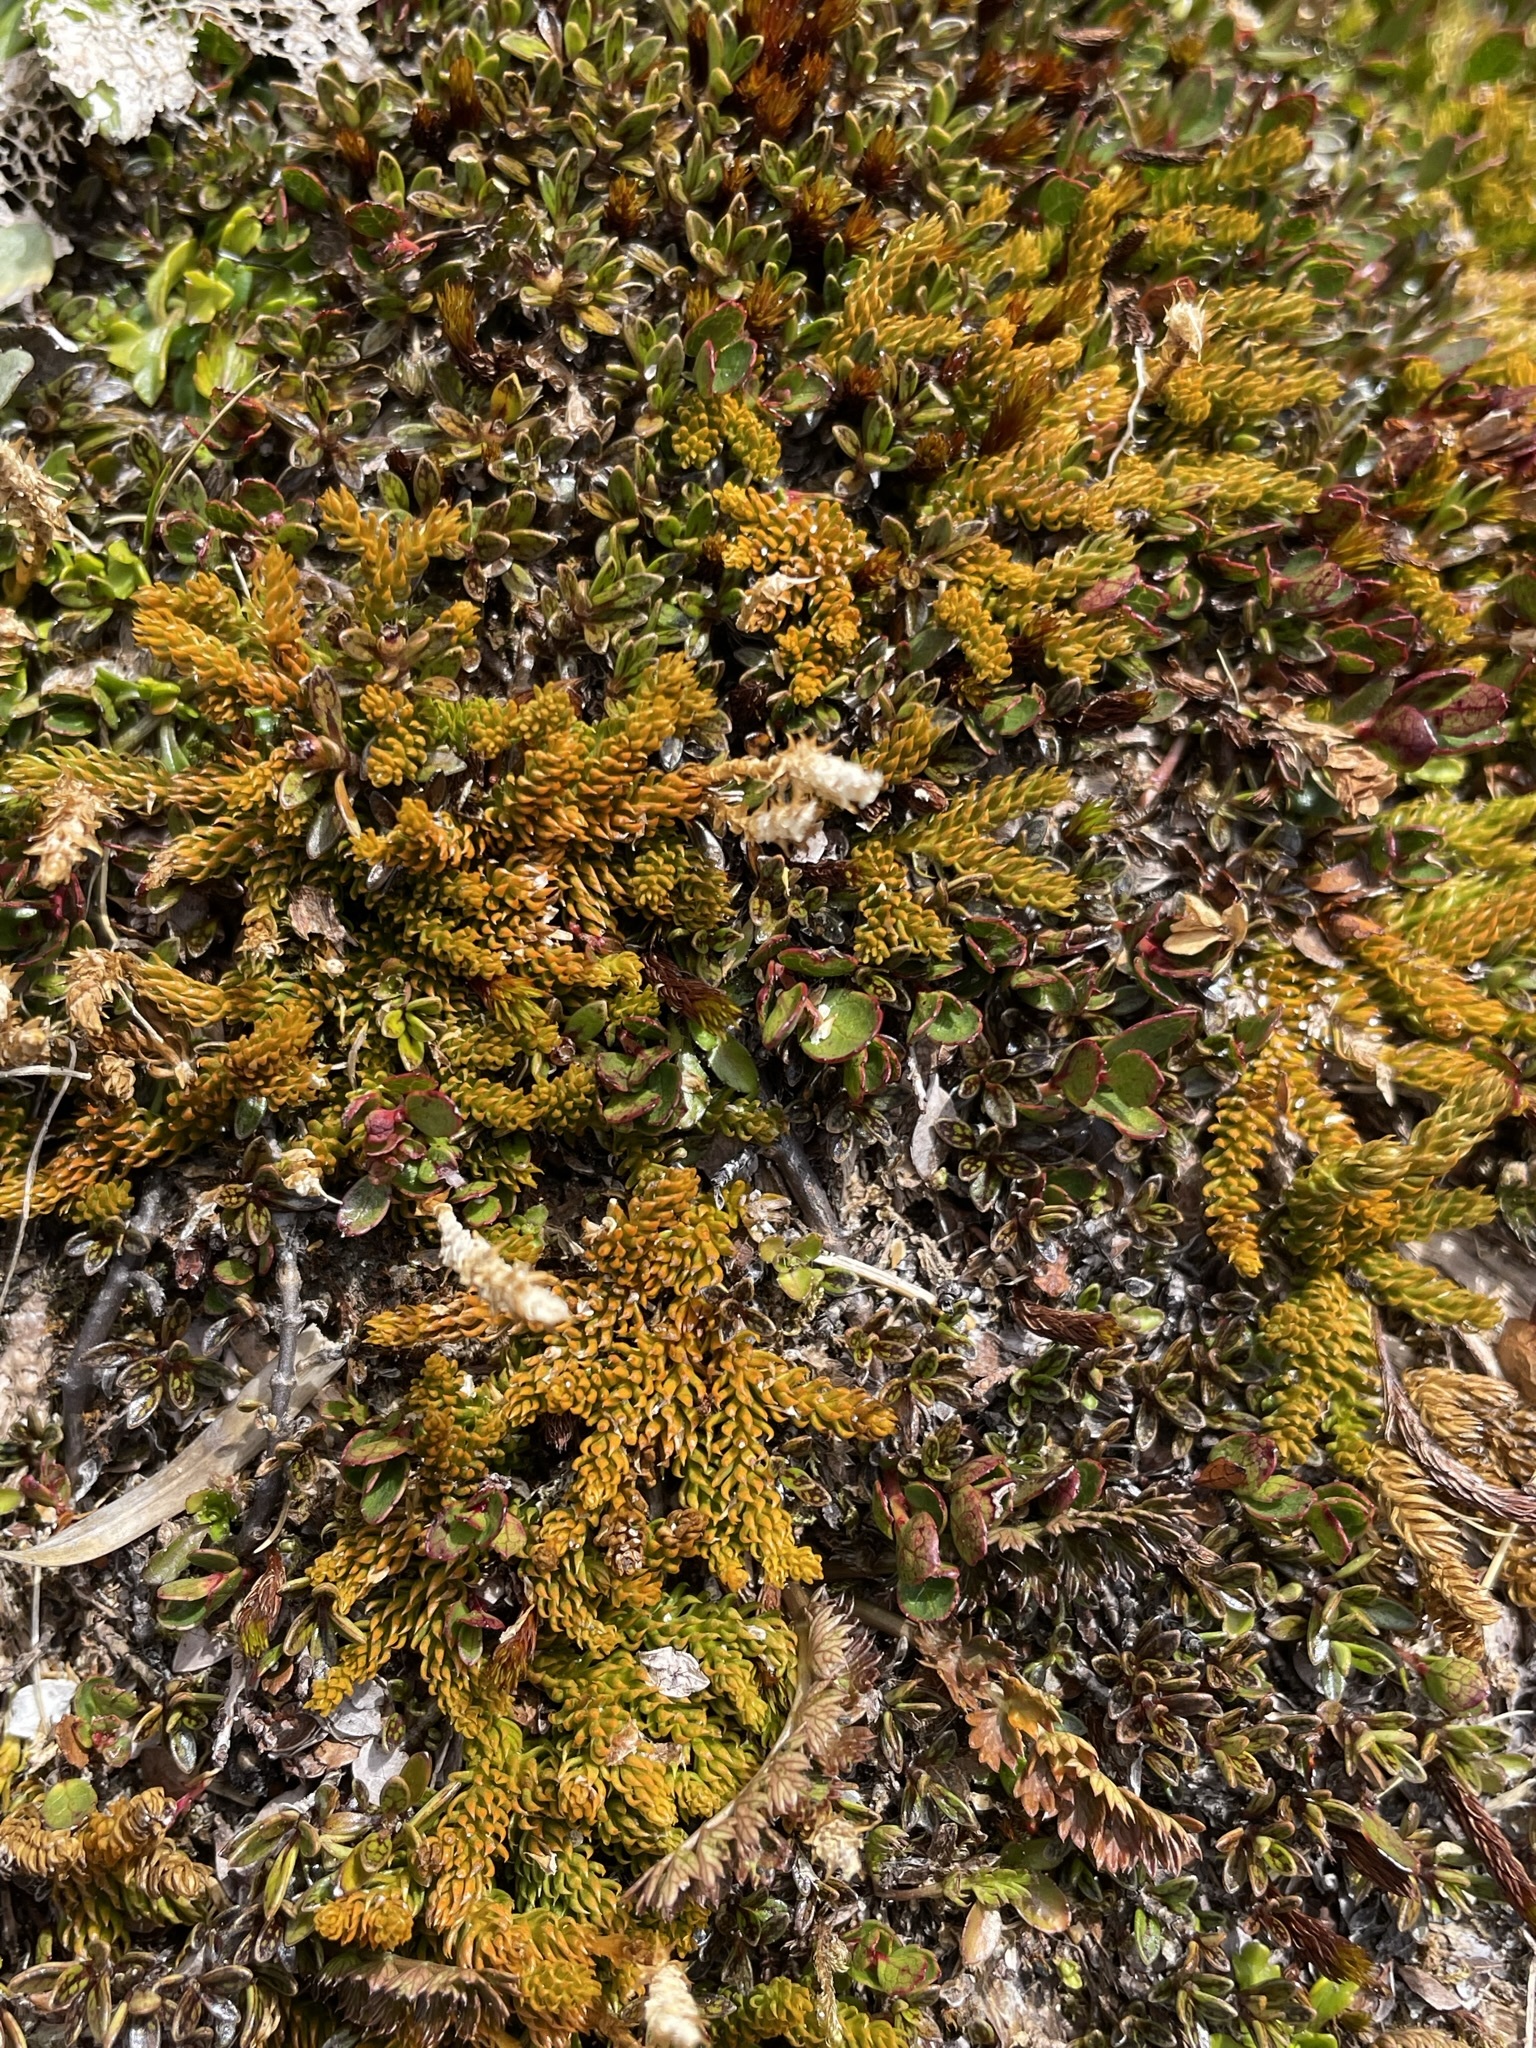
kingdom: Plantae
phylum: Tracheophyta
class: Lycopodiopsida
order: Lycopodiales
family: Lycopodiaceae
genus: Austrolycopodium
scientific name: Austrolycopodium fastigiatum
